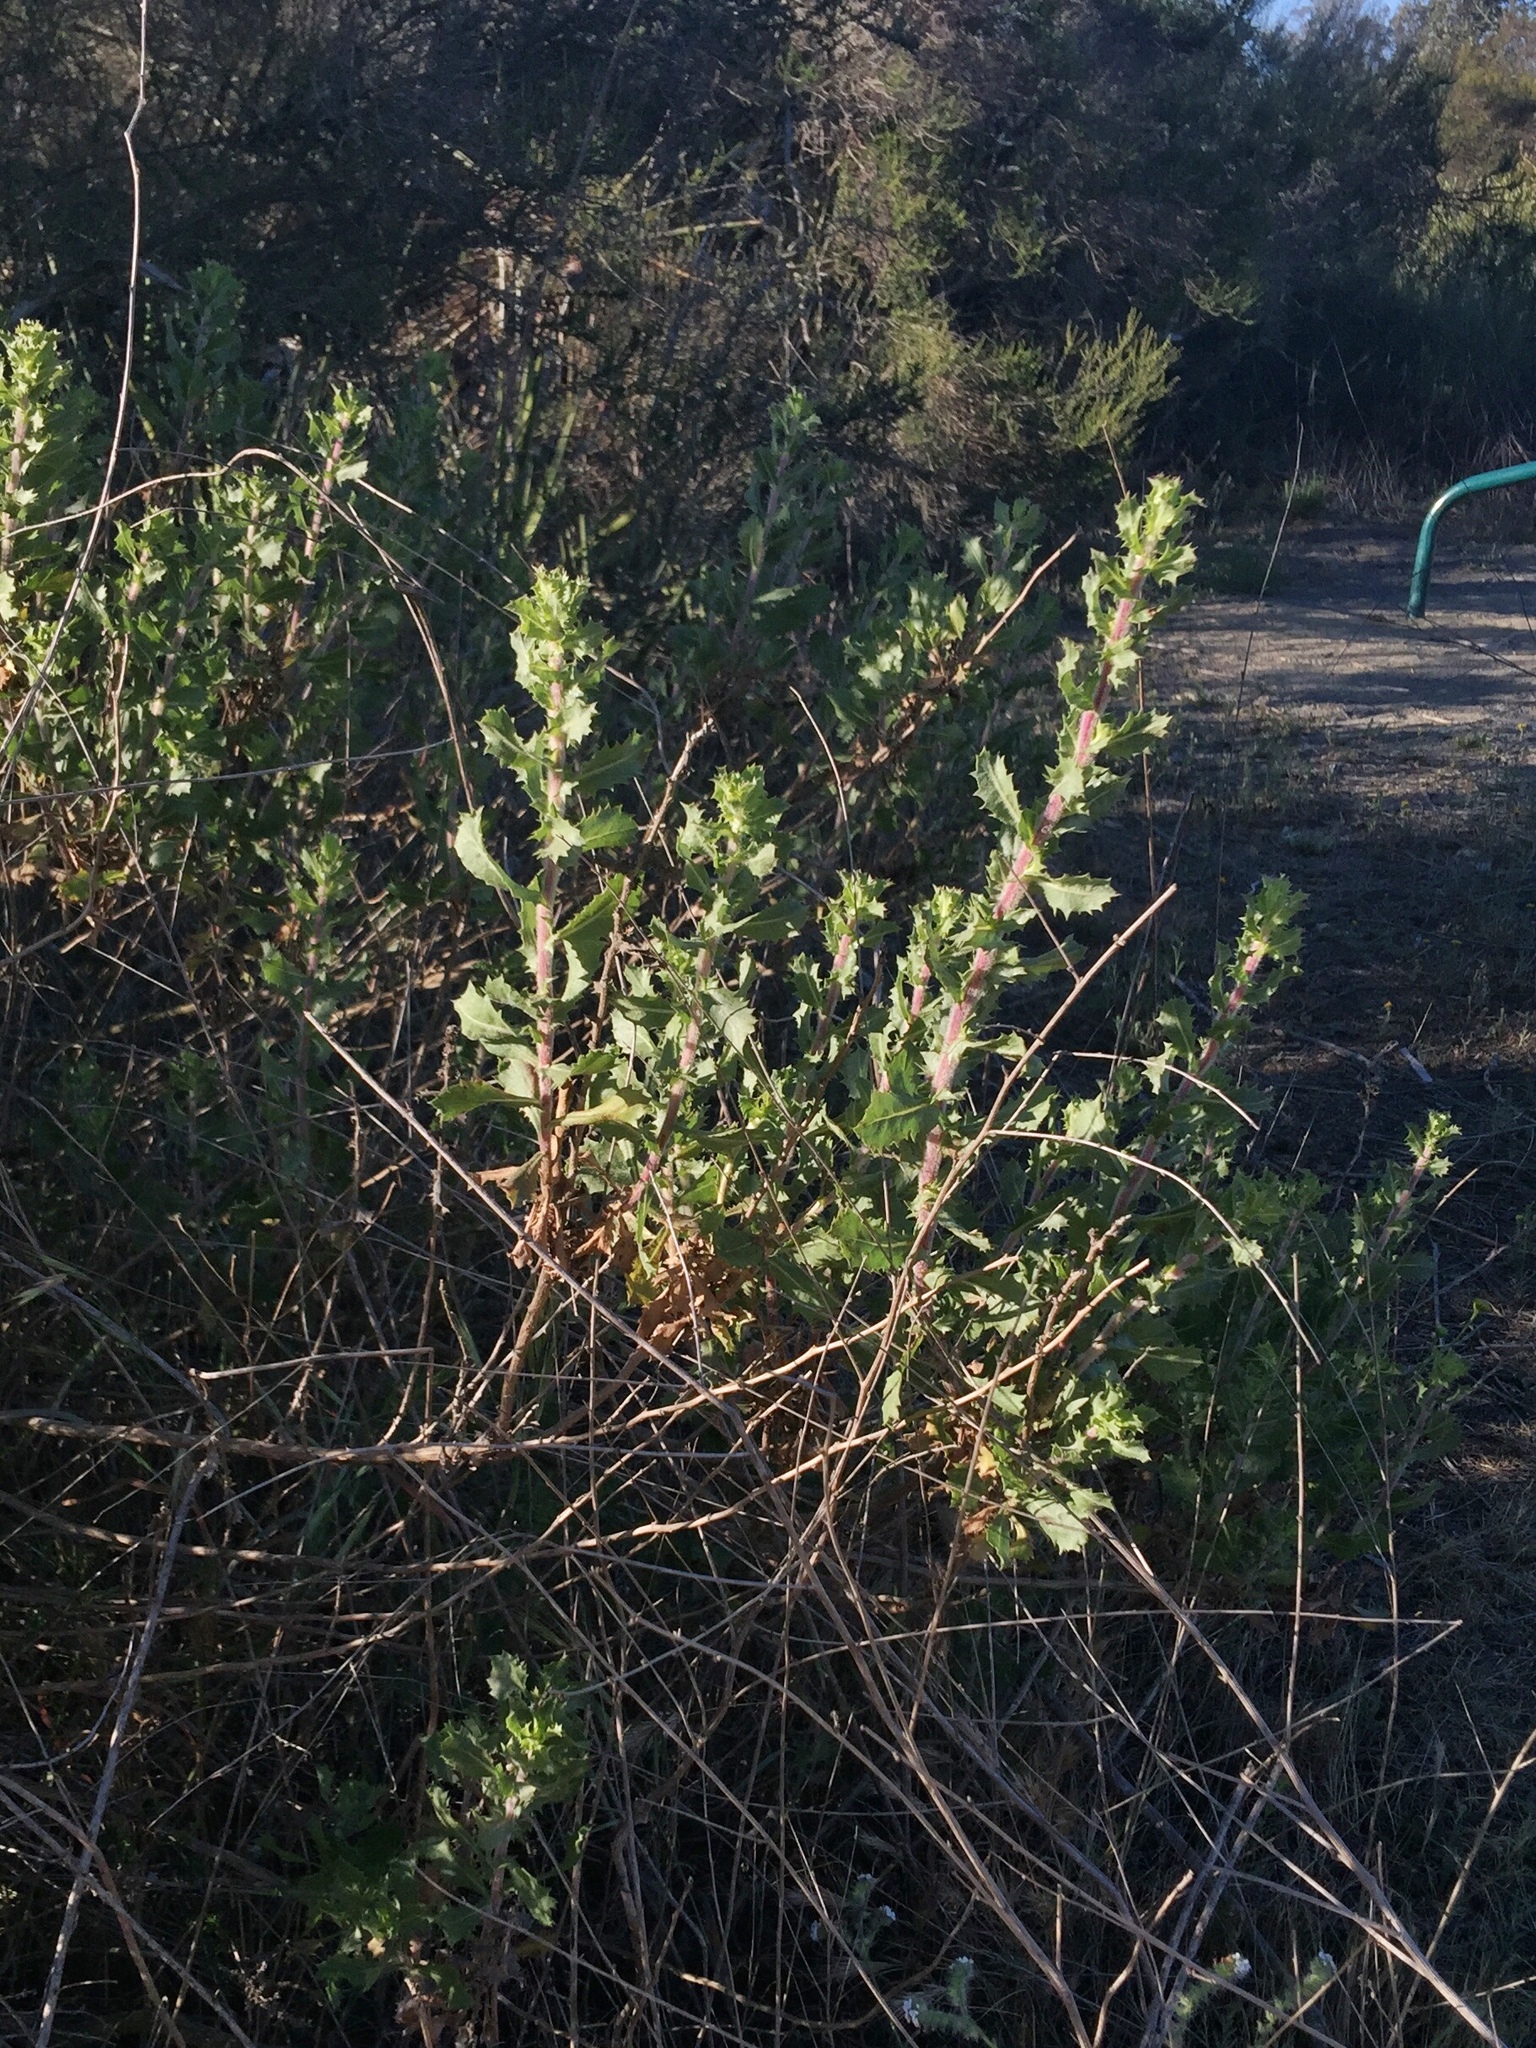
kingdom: Plantae
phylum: Tracheophyta
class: Magnoliopsida
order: Asterales
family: Asteraceae
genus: Hazardia
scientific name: Hazardia squarrosa
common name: Saw-tooth goldenbush
